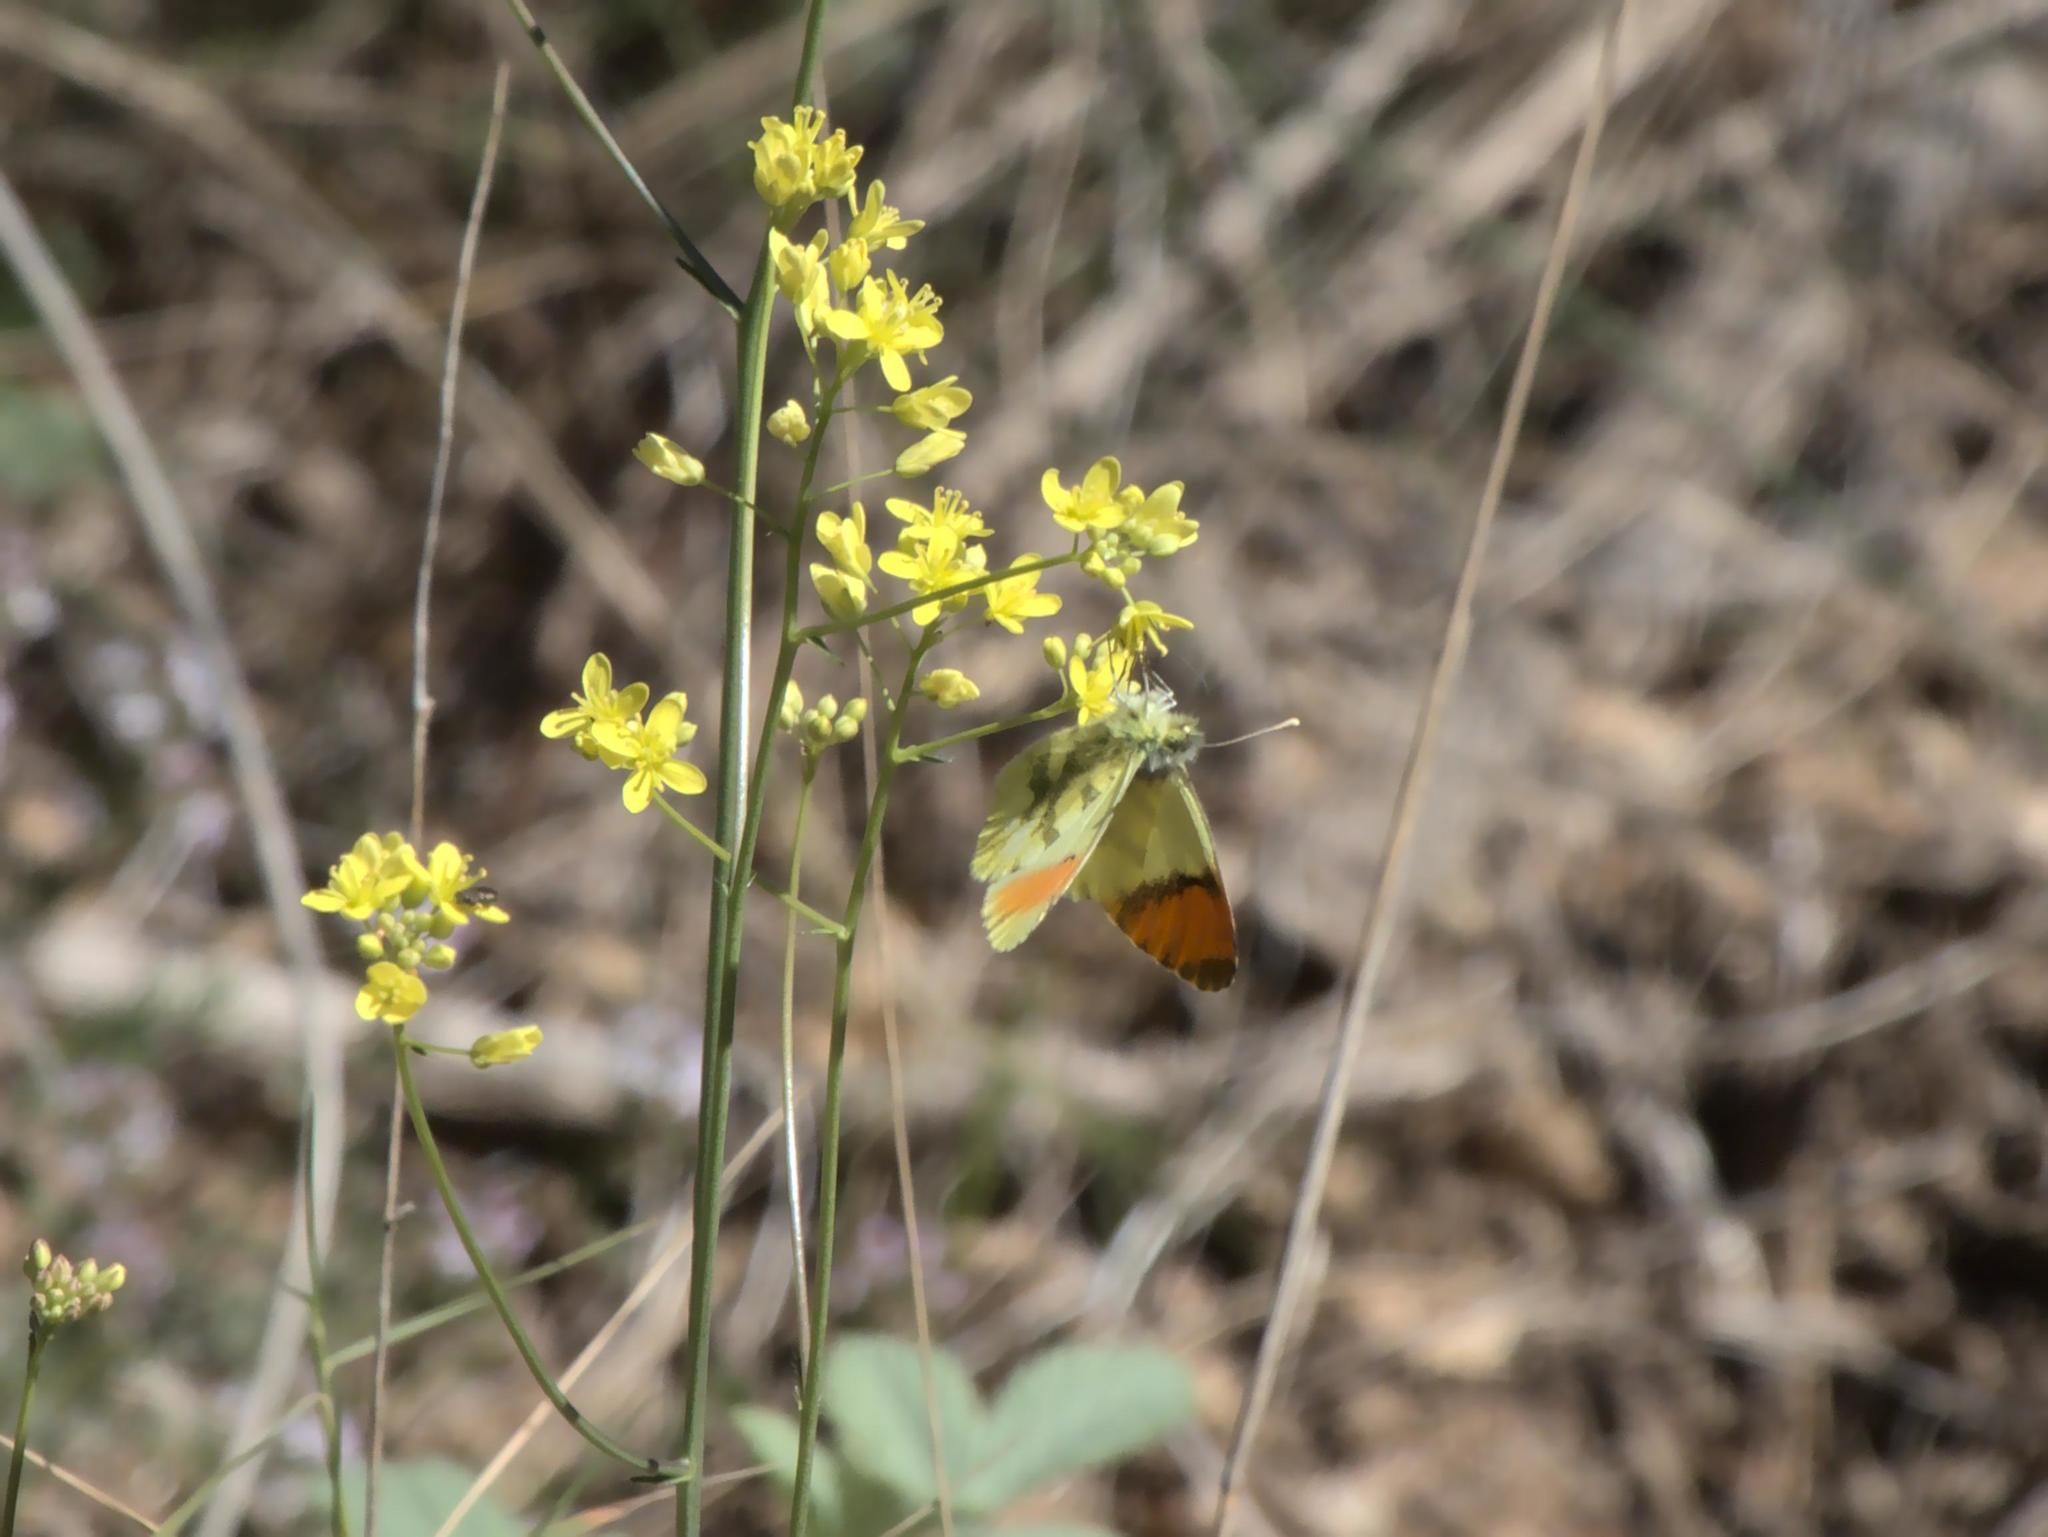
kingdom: Animalia
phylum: Arthropoda
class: Insecta
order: Lepidoptera
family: Pieridae
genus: Anthocharis
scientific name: Anthocharis euphenoides
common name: Provence orange-tip
